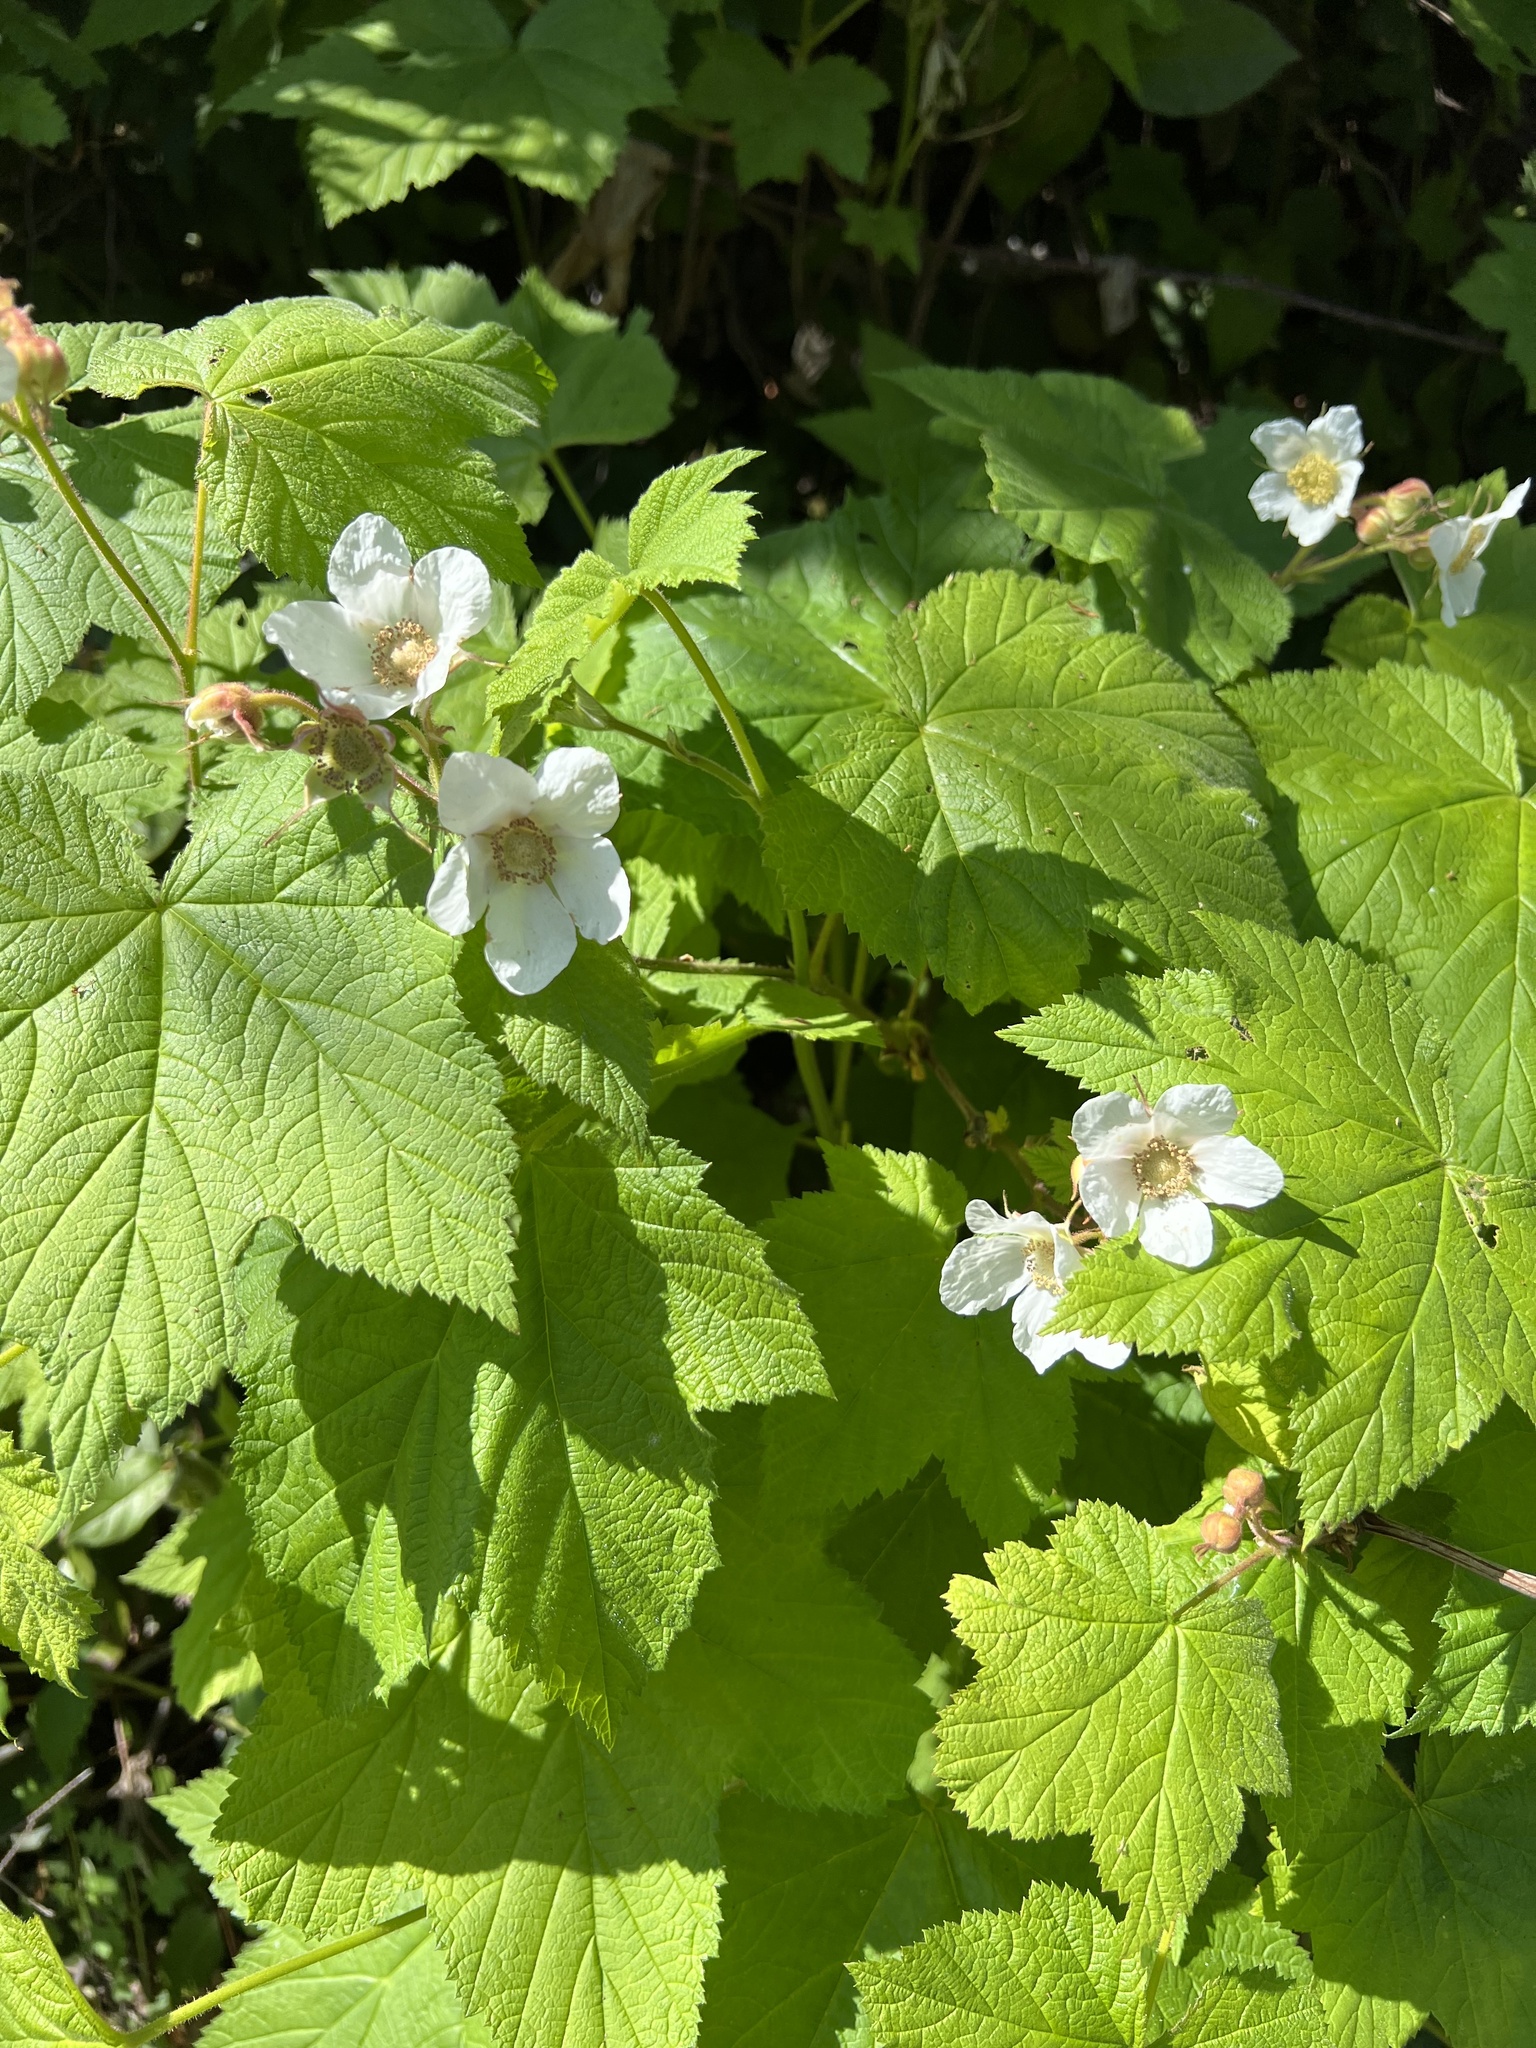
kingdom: Plantae
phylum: Tracheophyta
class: Magnoliopsida
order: Rosales
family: Rosaceae
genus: Rubus
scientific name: Rubus parviflorus
